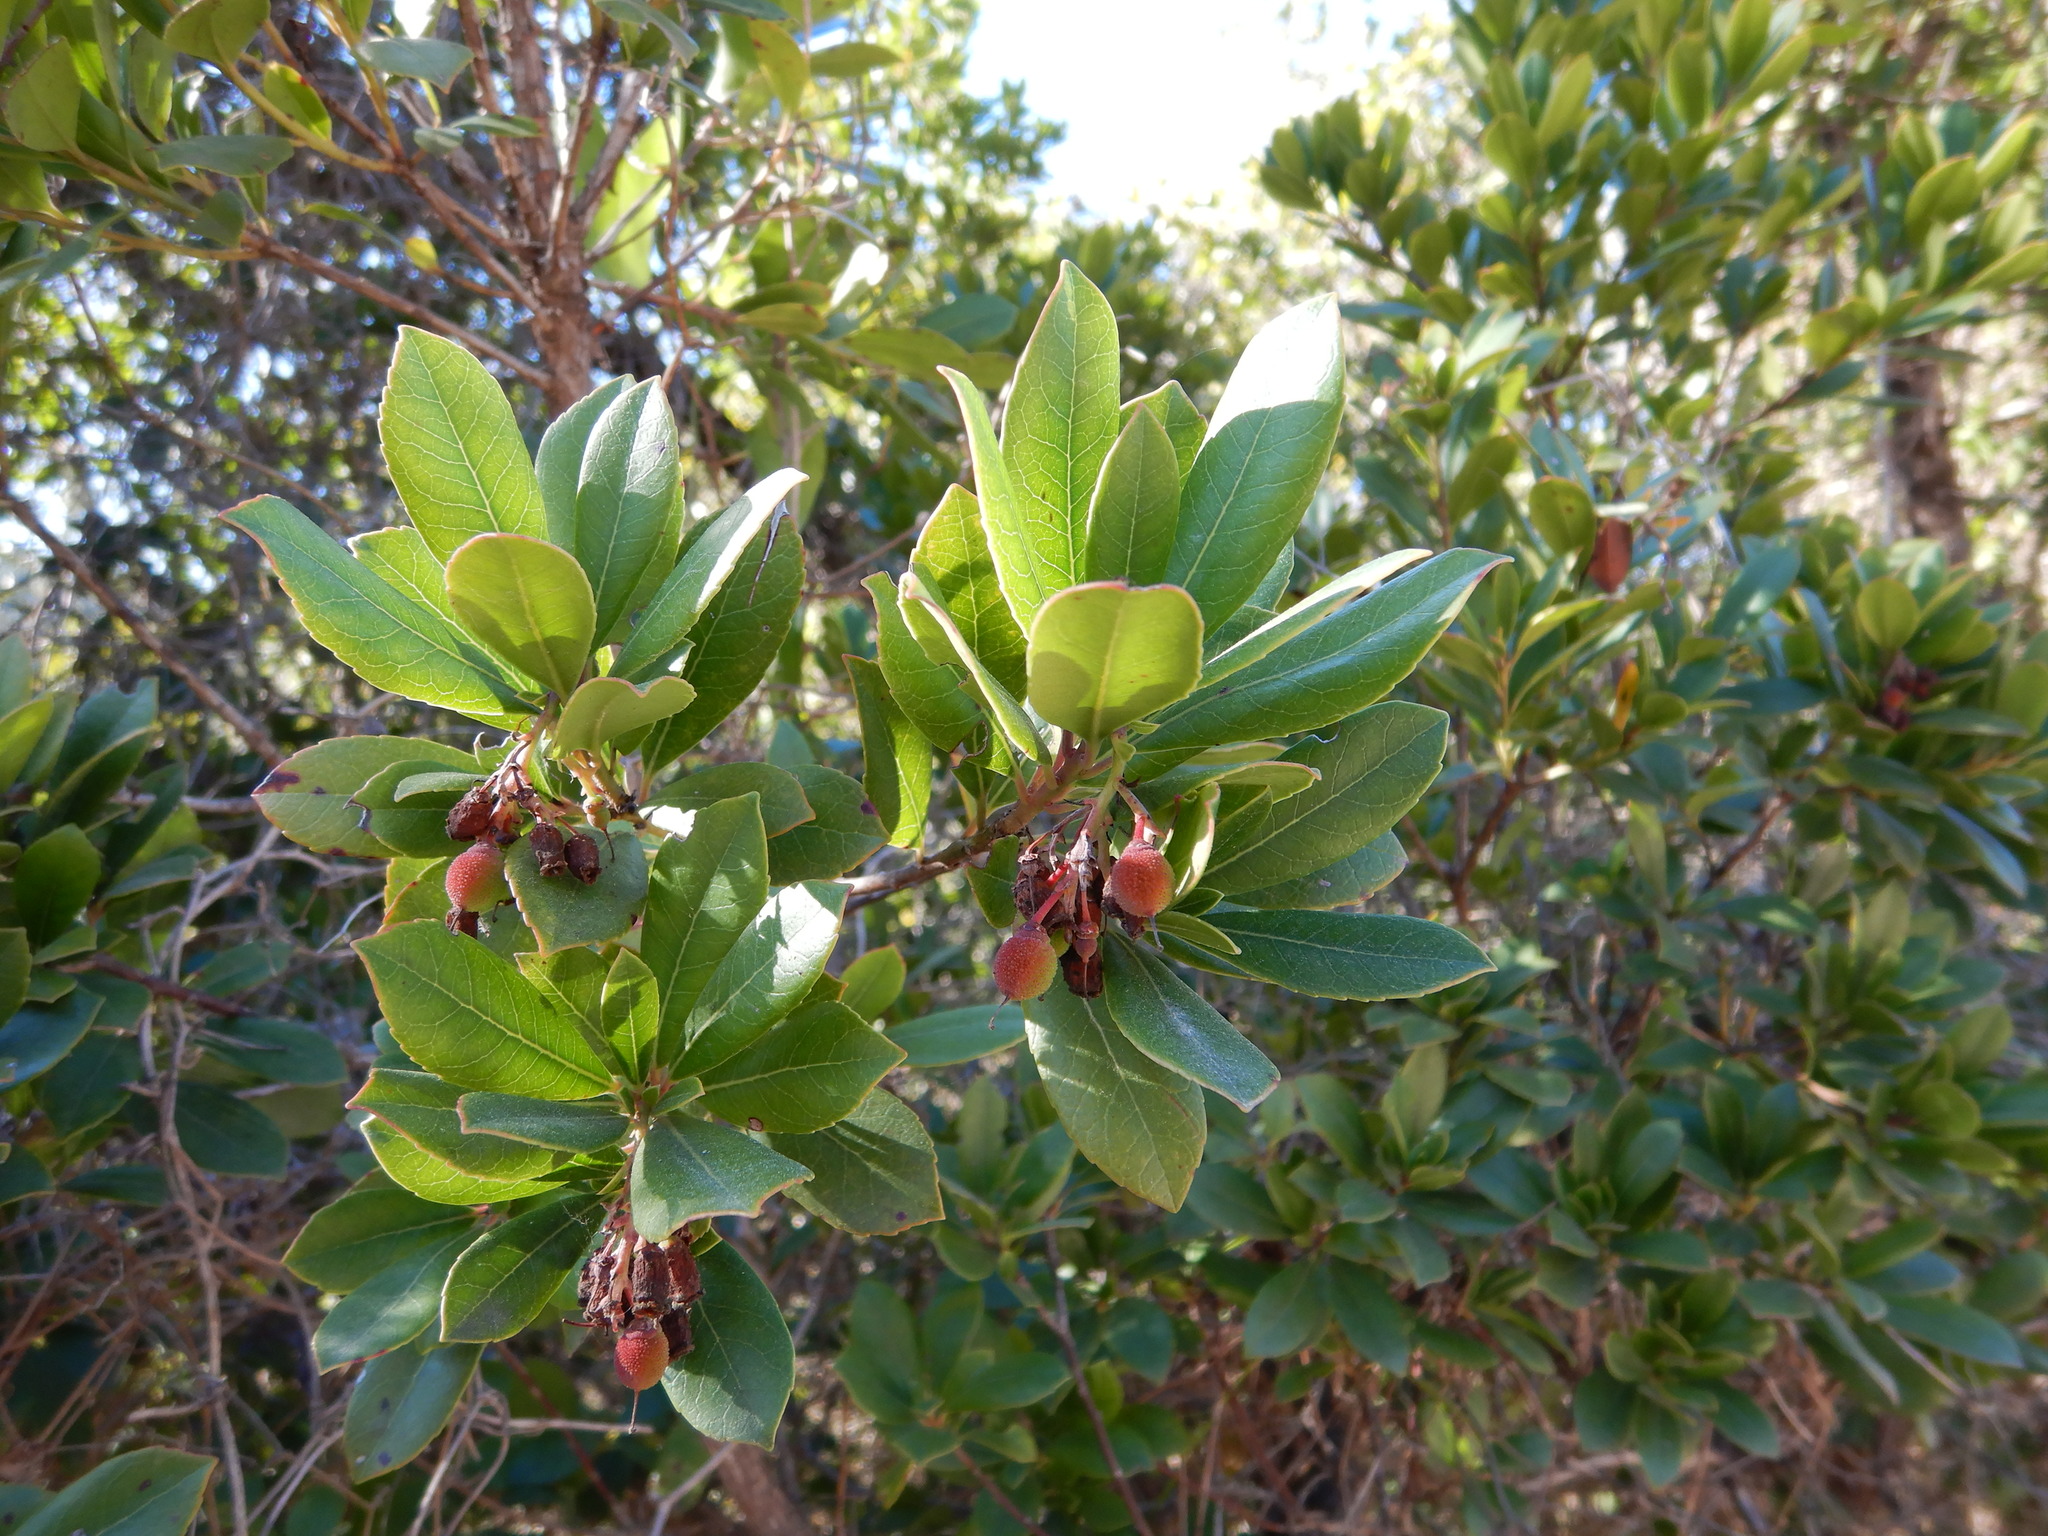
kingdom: Plantae
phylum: Tracheophyta
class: Magnoliopsida
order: Ericales
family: Ericaceae
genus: Arbutus
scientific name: Arbutus unedo
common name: Strawberry-tree
